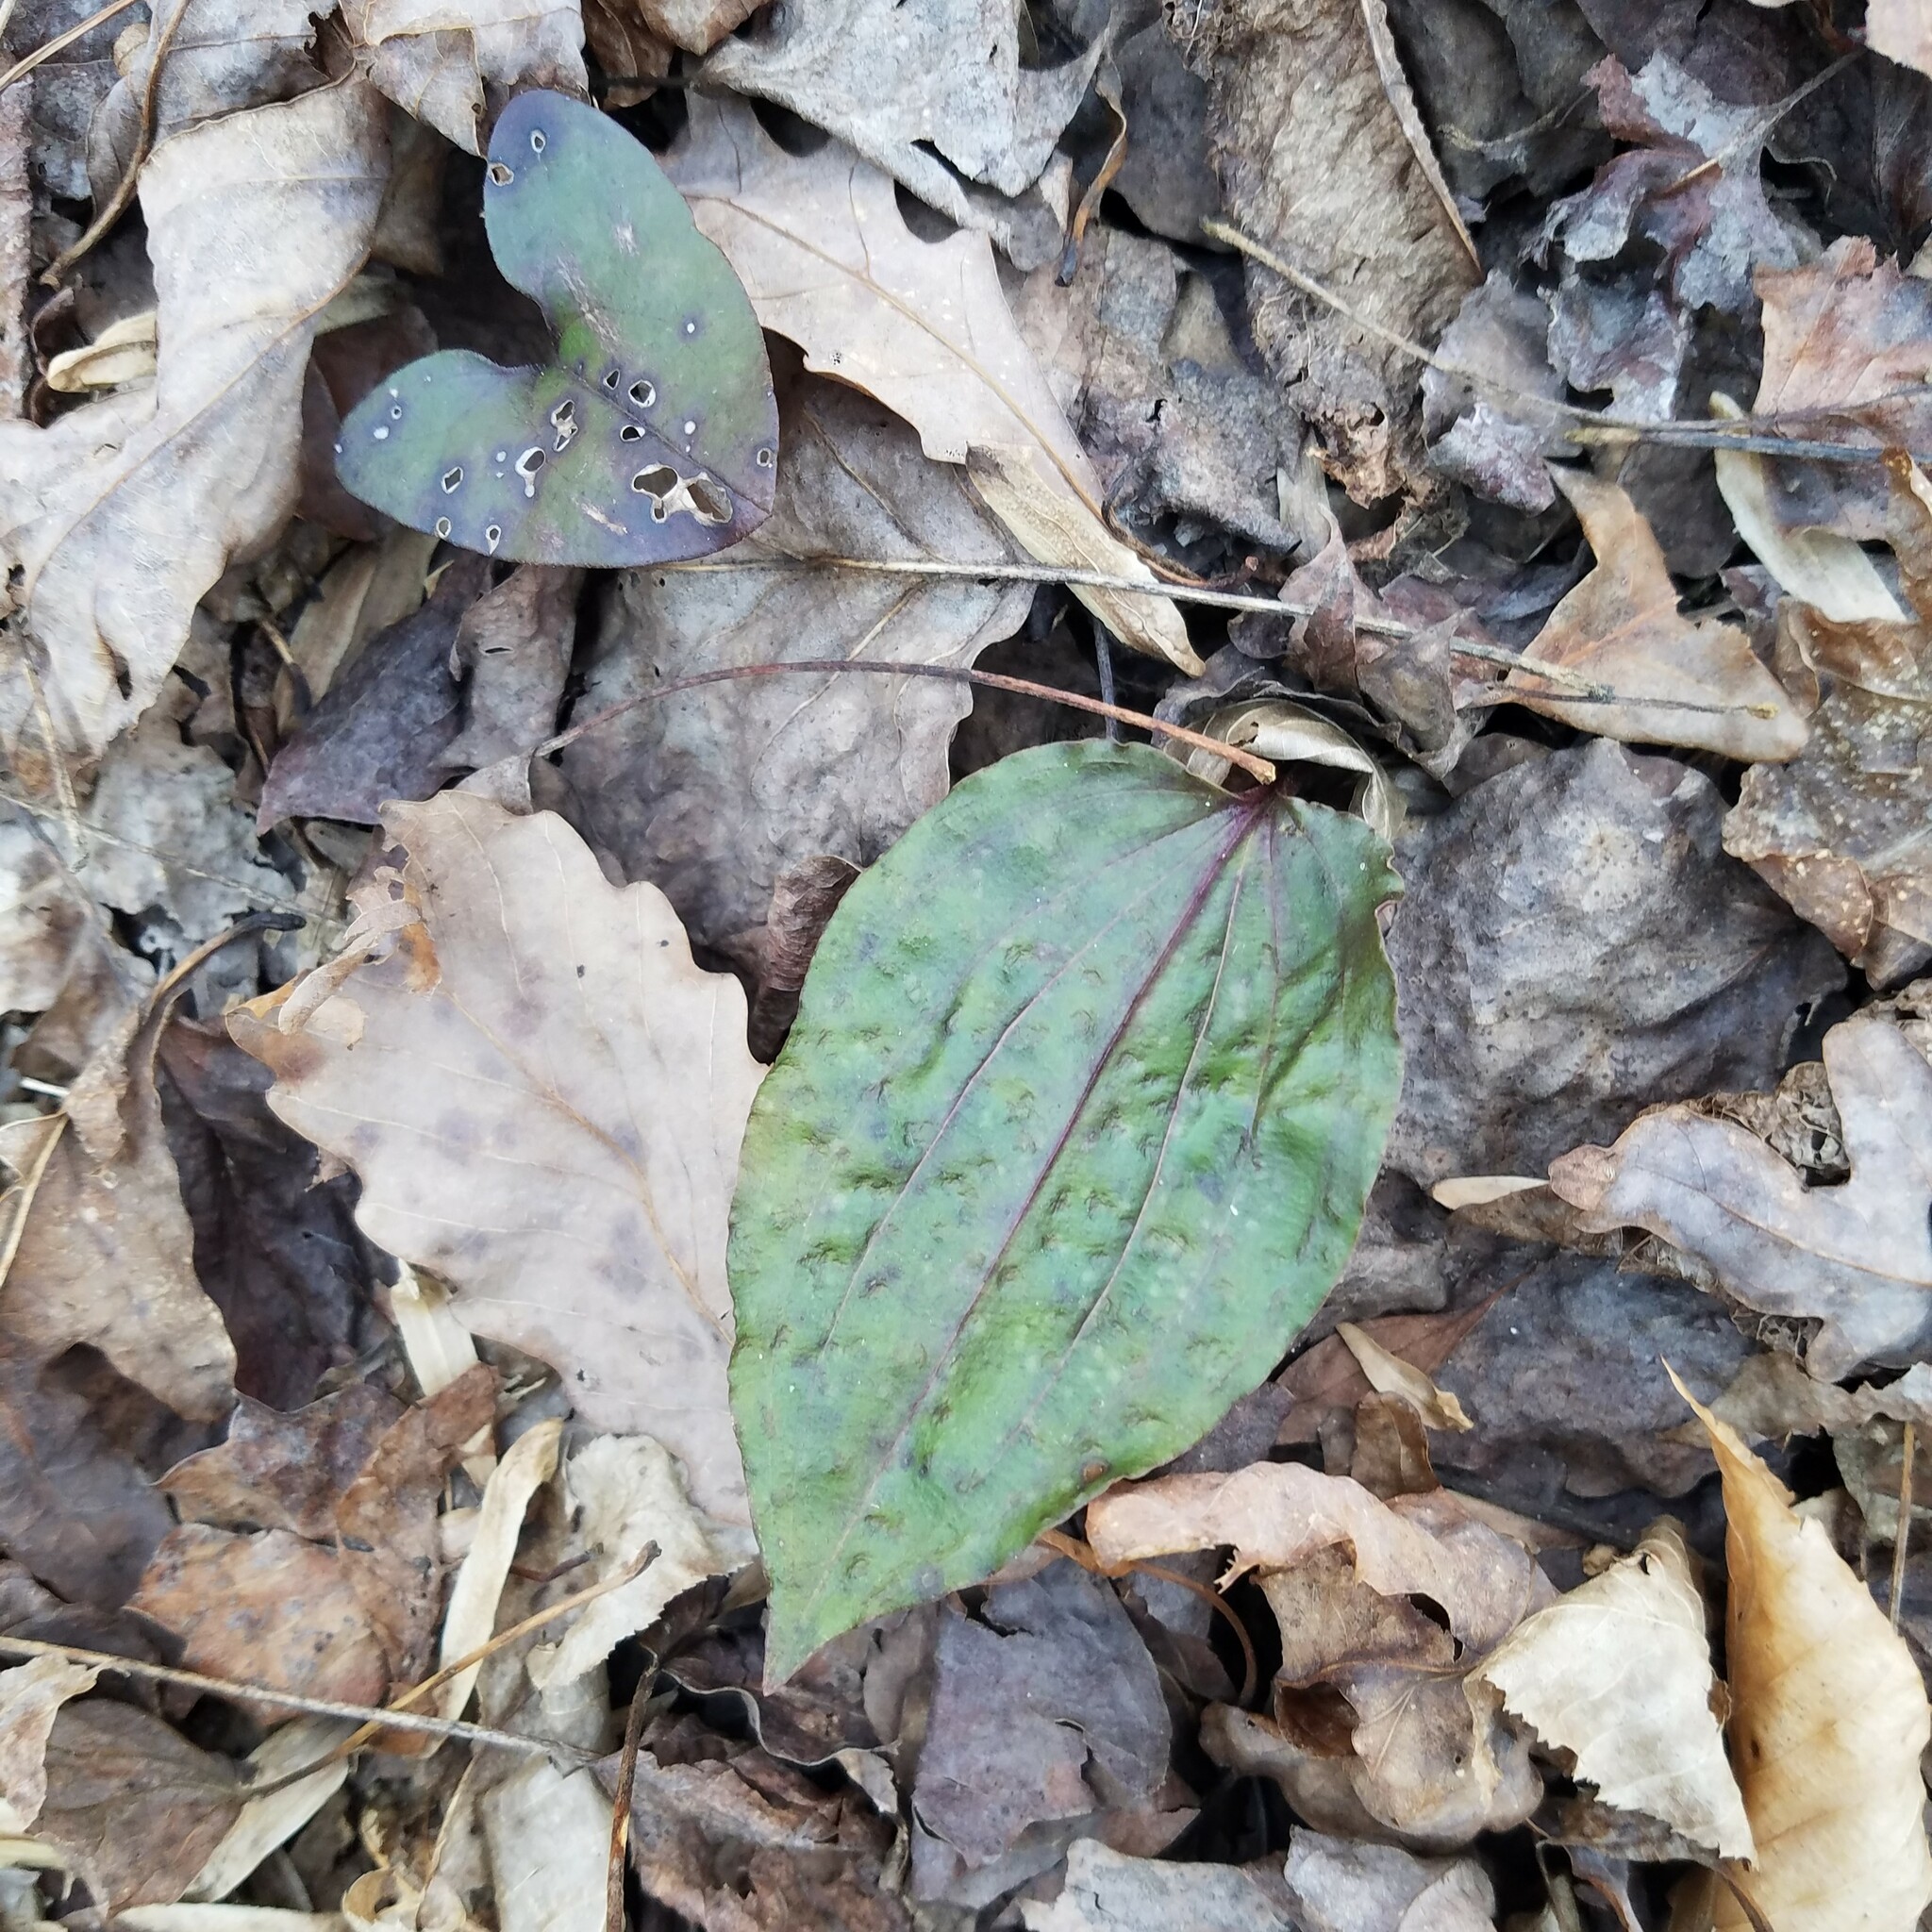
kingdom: Plantae
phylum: Tracheophyta
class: Liliopsida
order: Asparagales
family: Orchidaceae
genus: Tipularia
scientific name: Tipularia discolor
